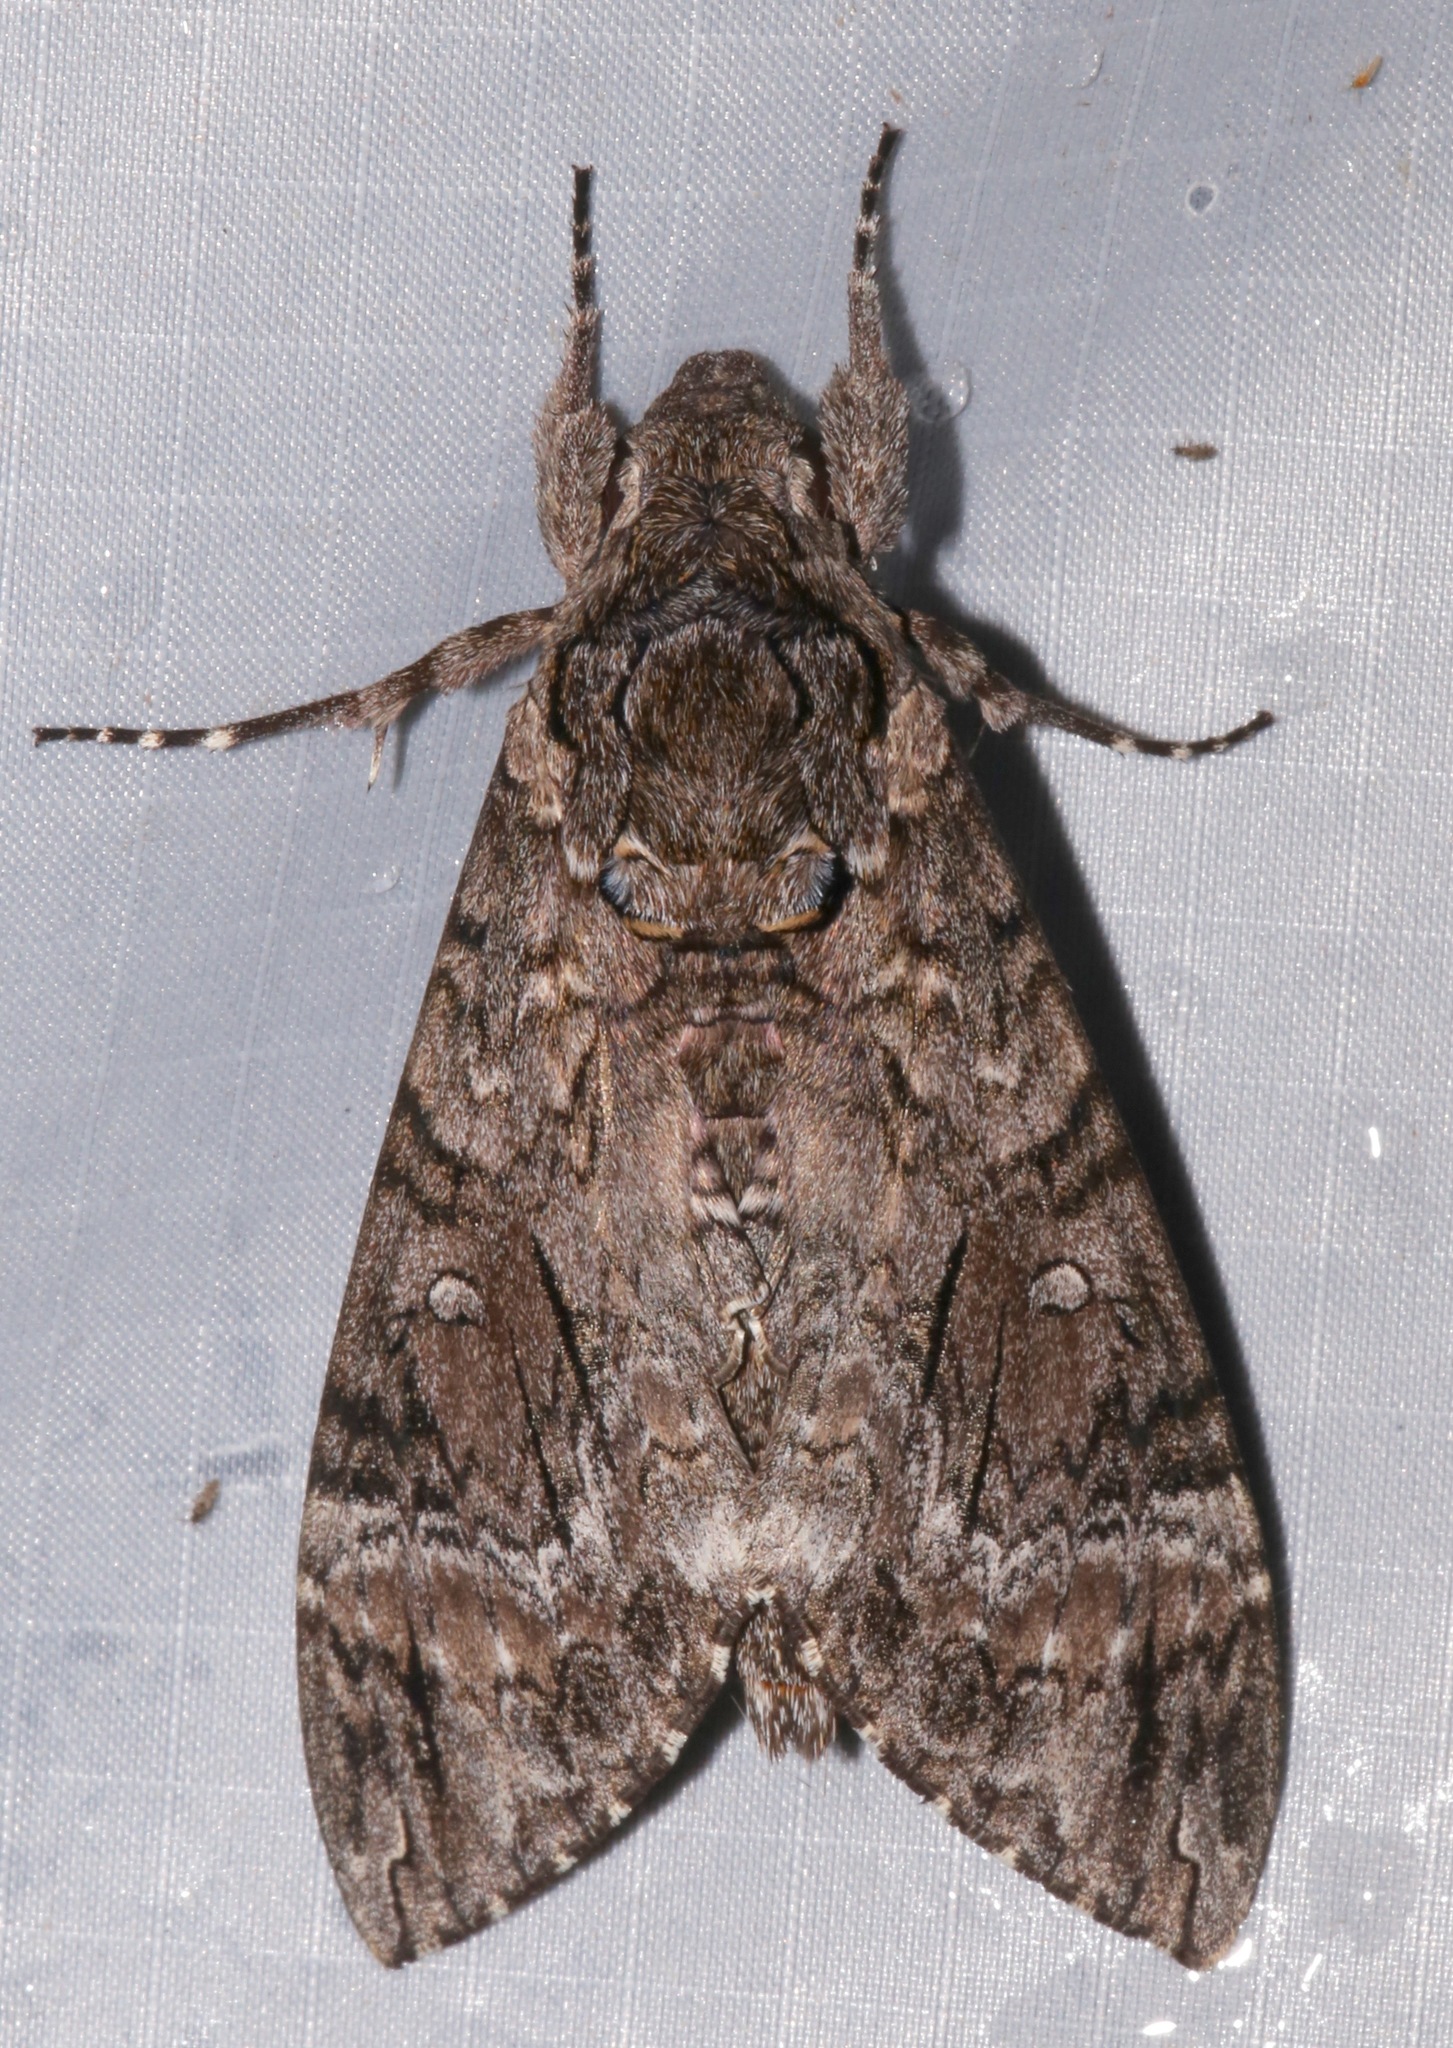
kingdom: Animalia
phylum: Arthropoda
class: Insecta
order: Lepidoptera
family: Sphingidae
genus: Agrius
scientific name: Agrius cingulata
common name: Pink-spotted hawkmoth
